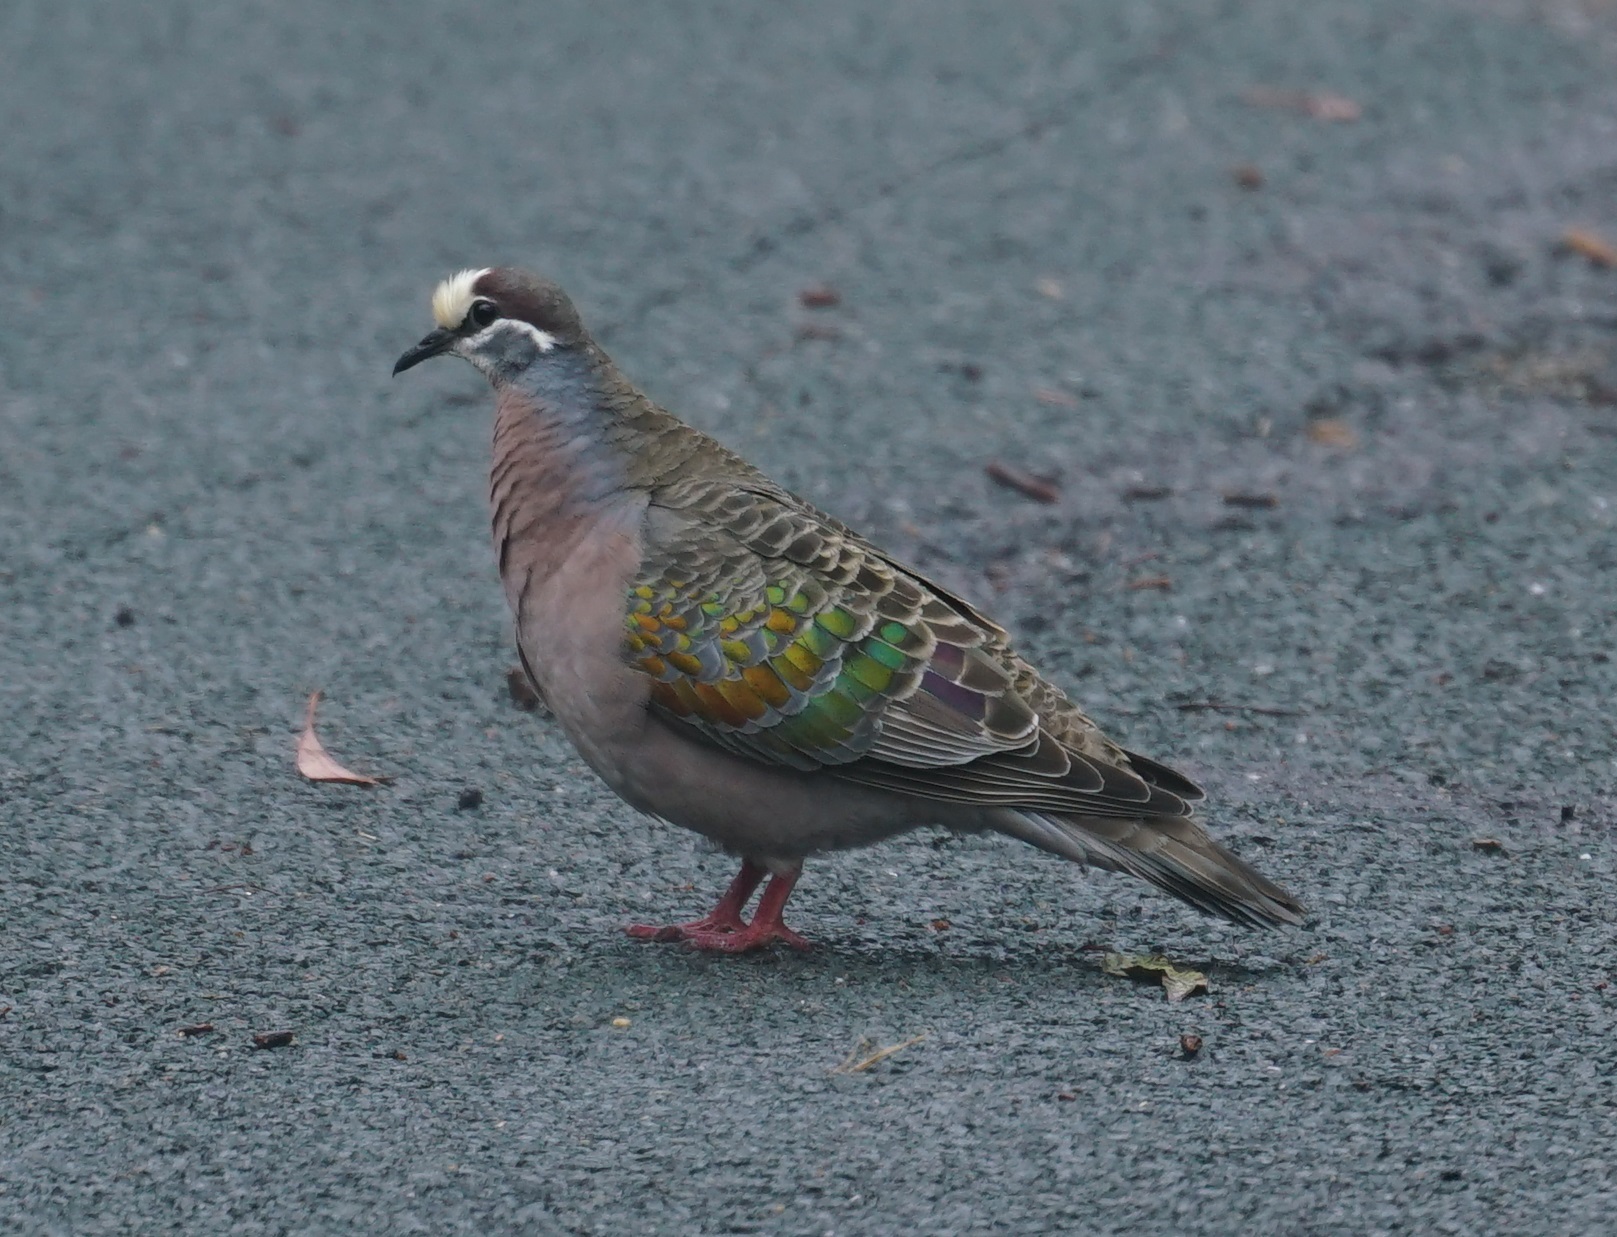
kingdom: Animalia
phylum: Chordata
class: Aves
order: Columbiformes
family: Columbidae
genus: Phaps
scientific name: Phaps chalcoptera
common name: Common bronzewing
